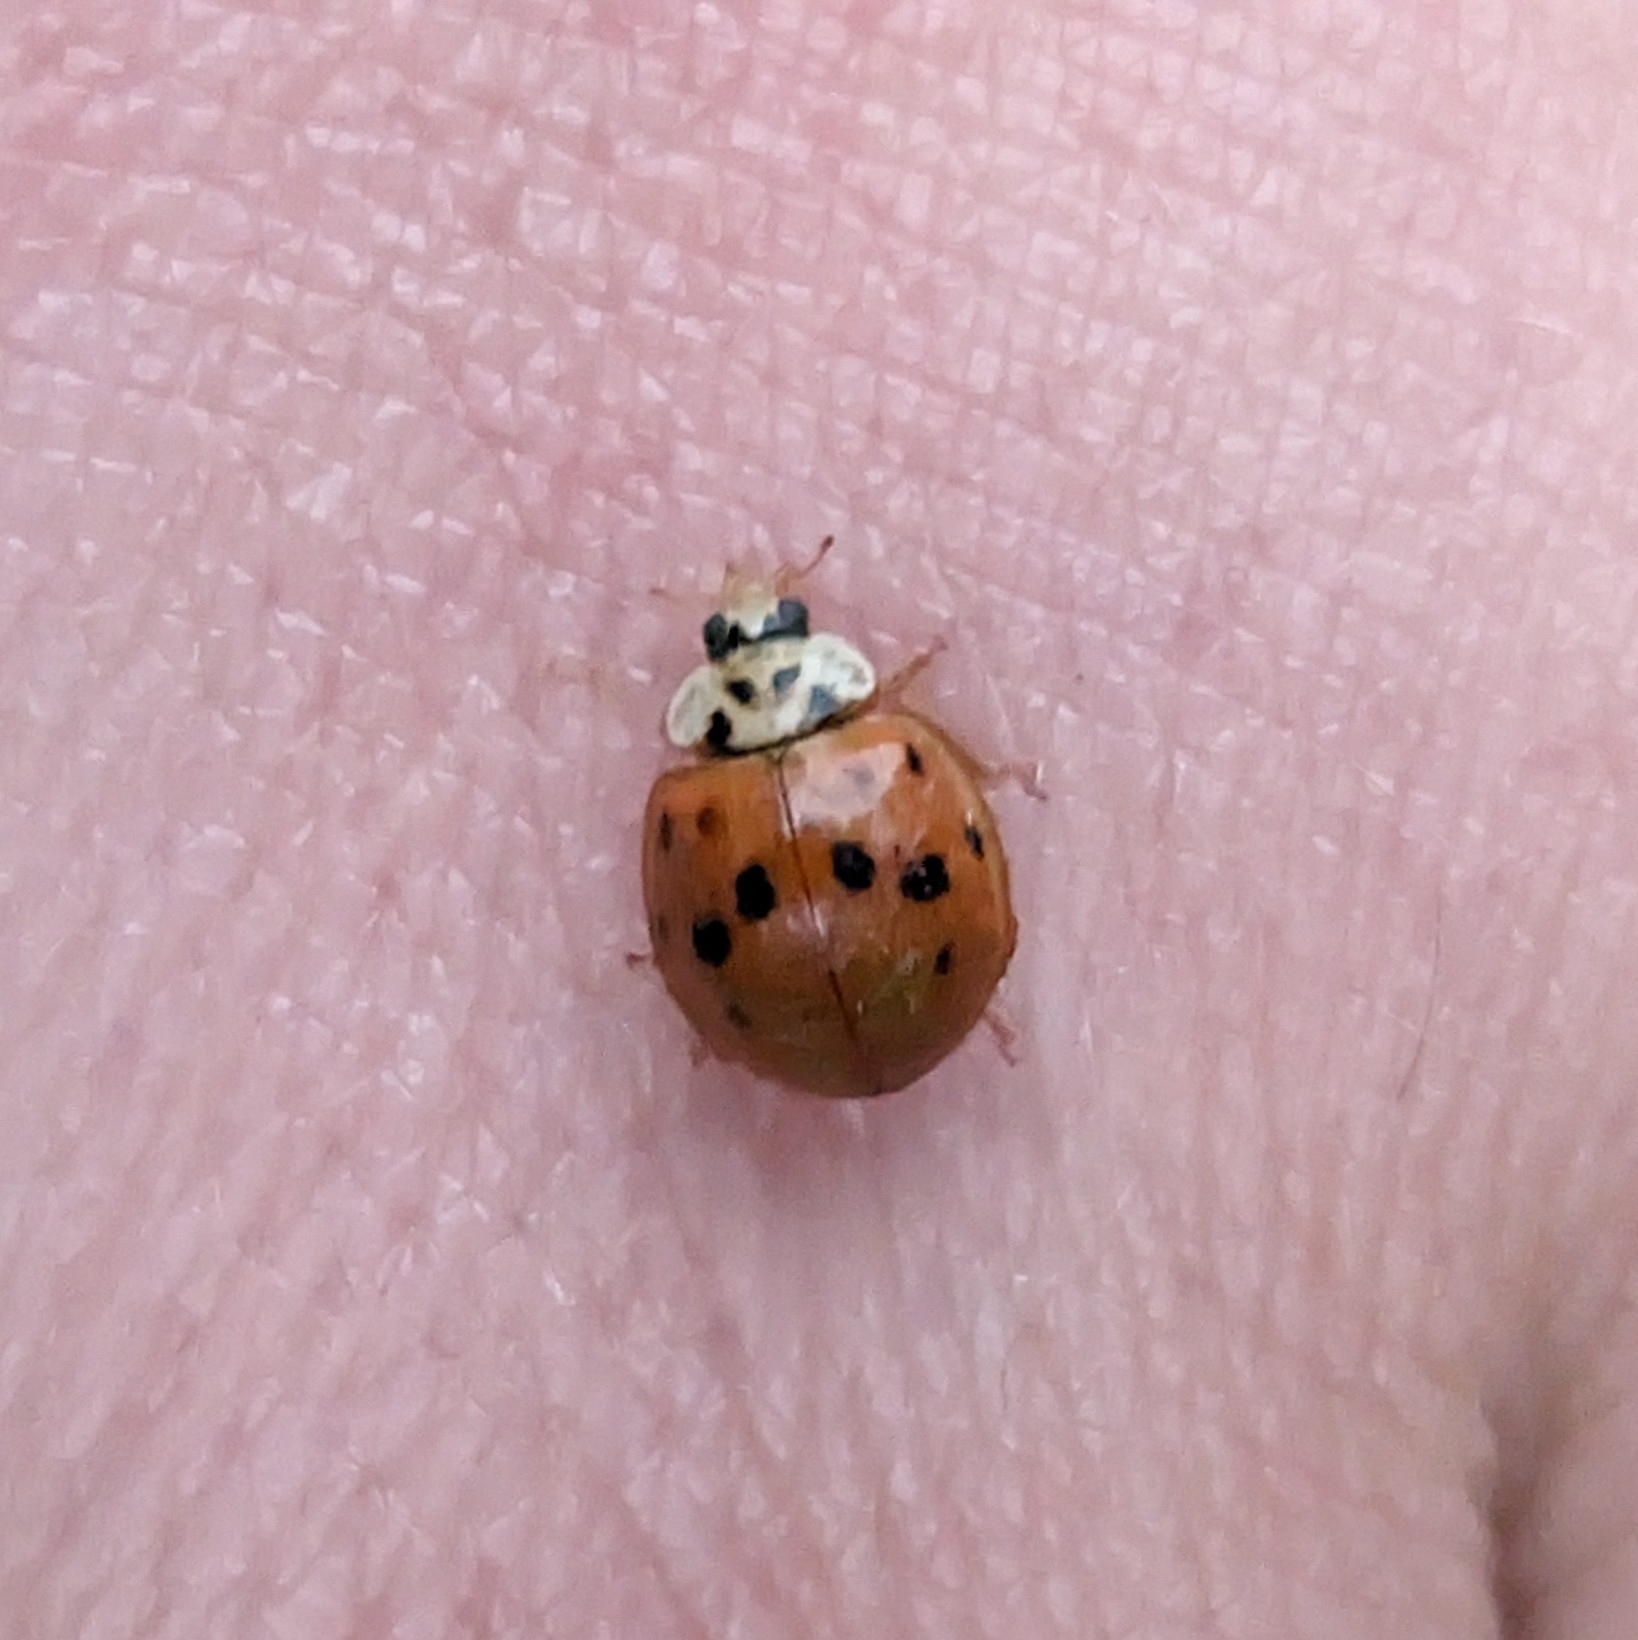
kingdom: Animalia
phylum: Arthropoda
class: Insecta
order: Coleoptera
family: Coccinellidae
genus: Harmonia
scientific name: Harmonia axyridis
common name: Harlequin ladybird
